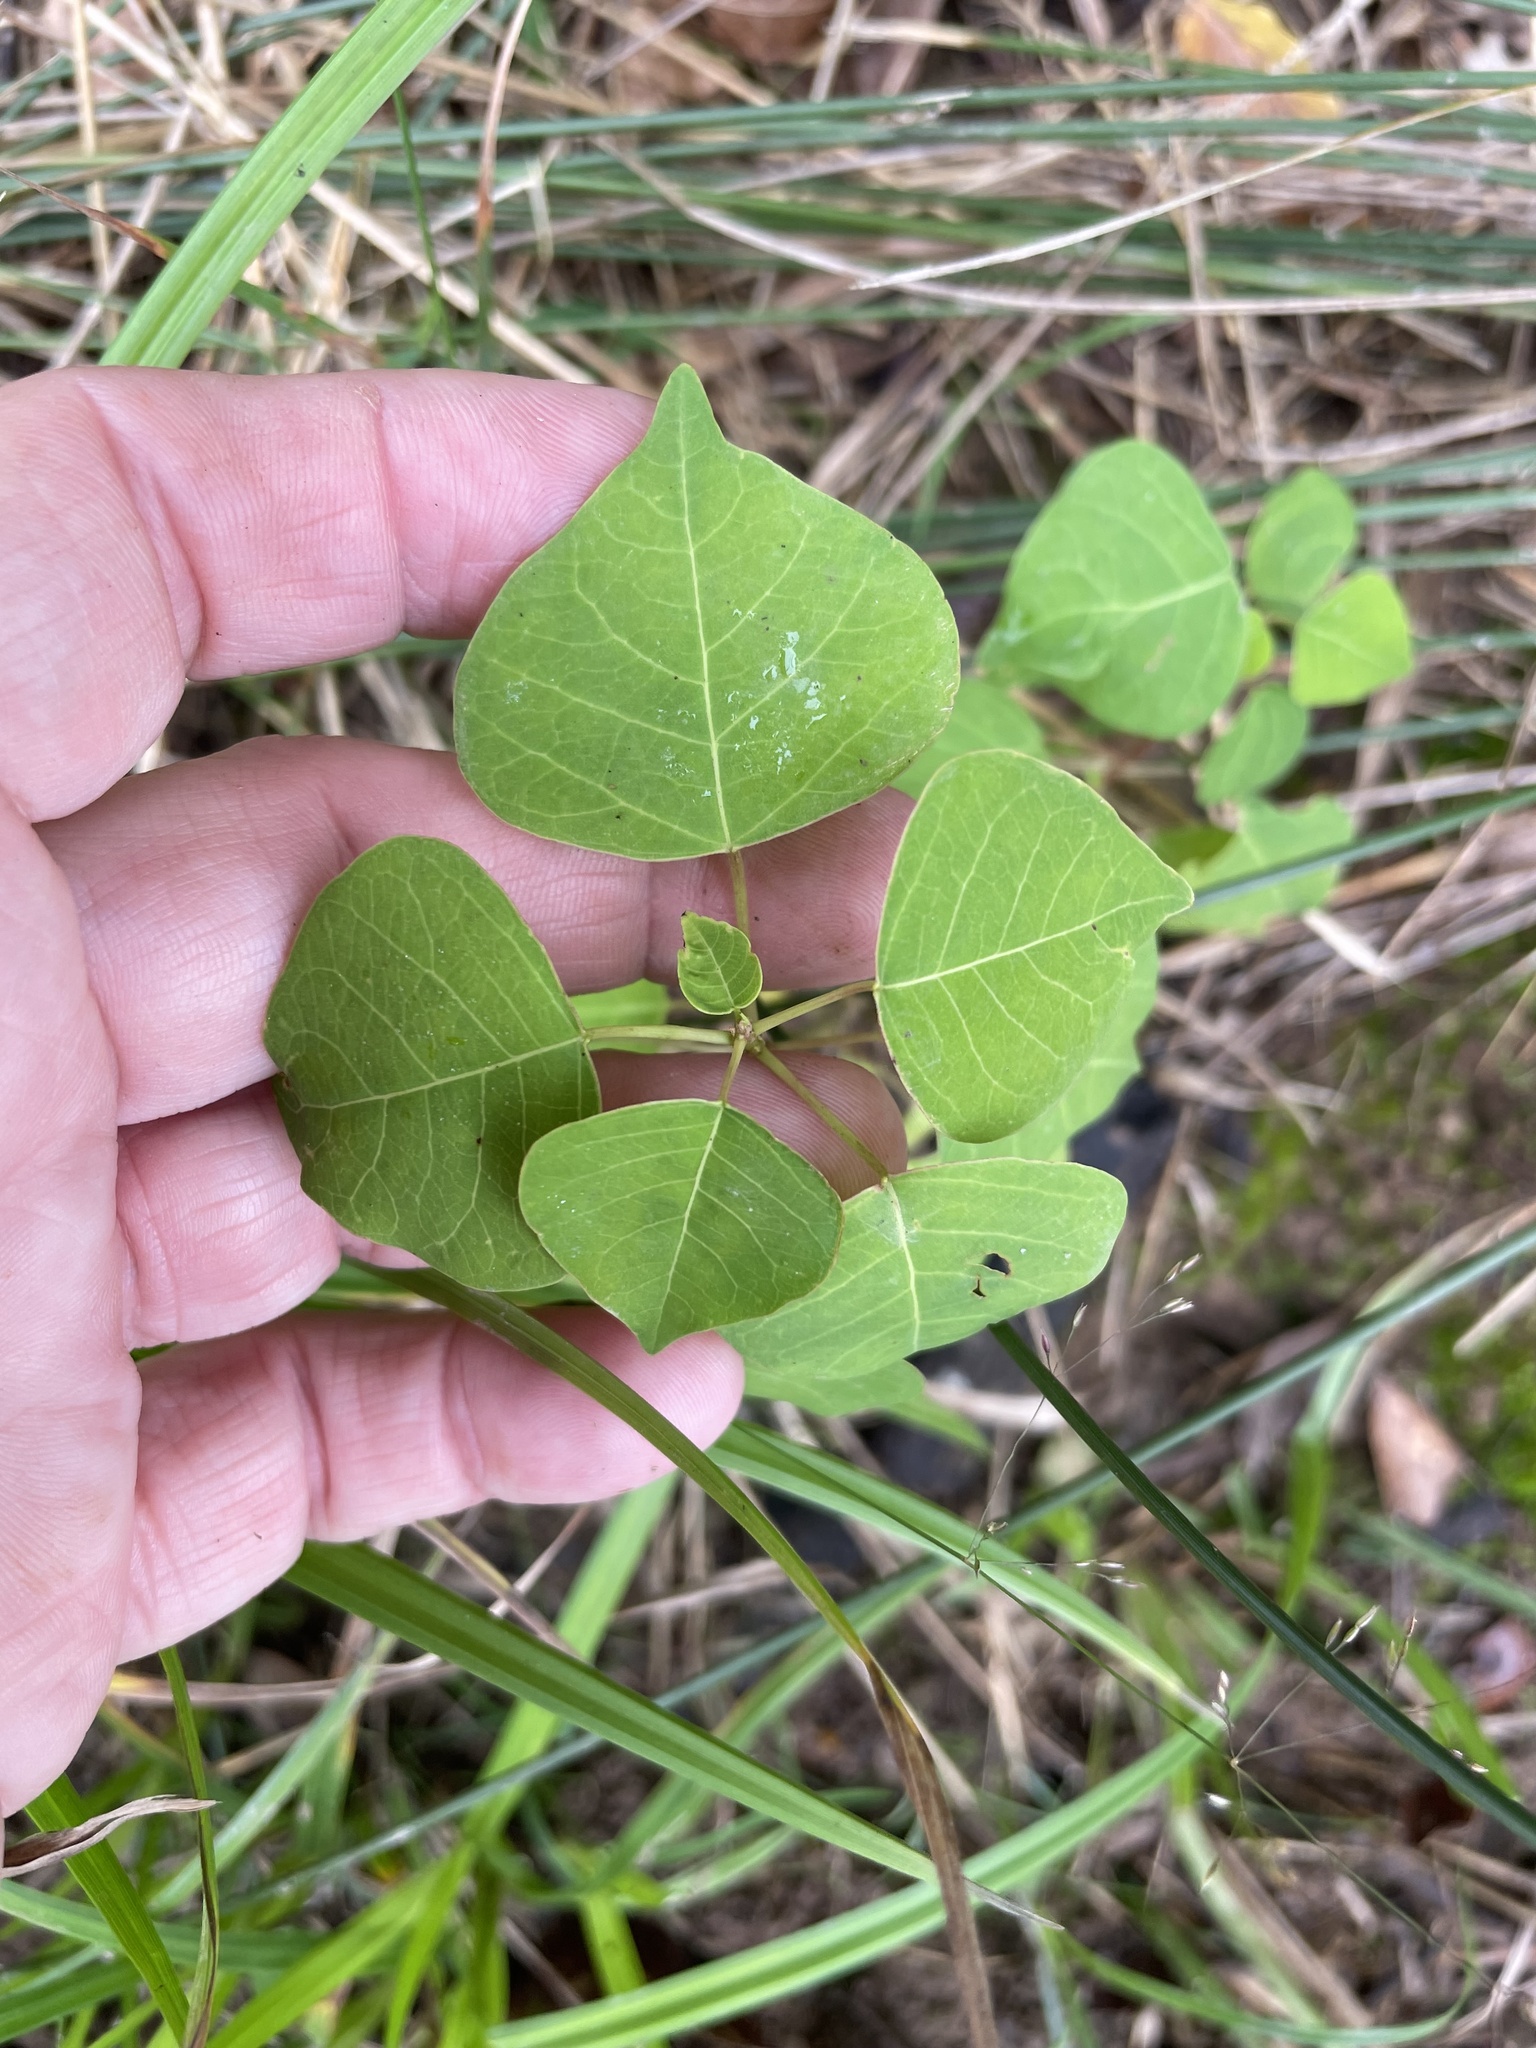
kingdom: Plantae
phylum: Tracheophyta
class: Magnoliopsida
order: Malpighiales
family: Euphorbiaceae
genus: Triadica
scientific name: Triadica sebifera
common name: Chinese tallow
